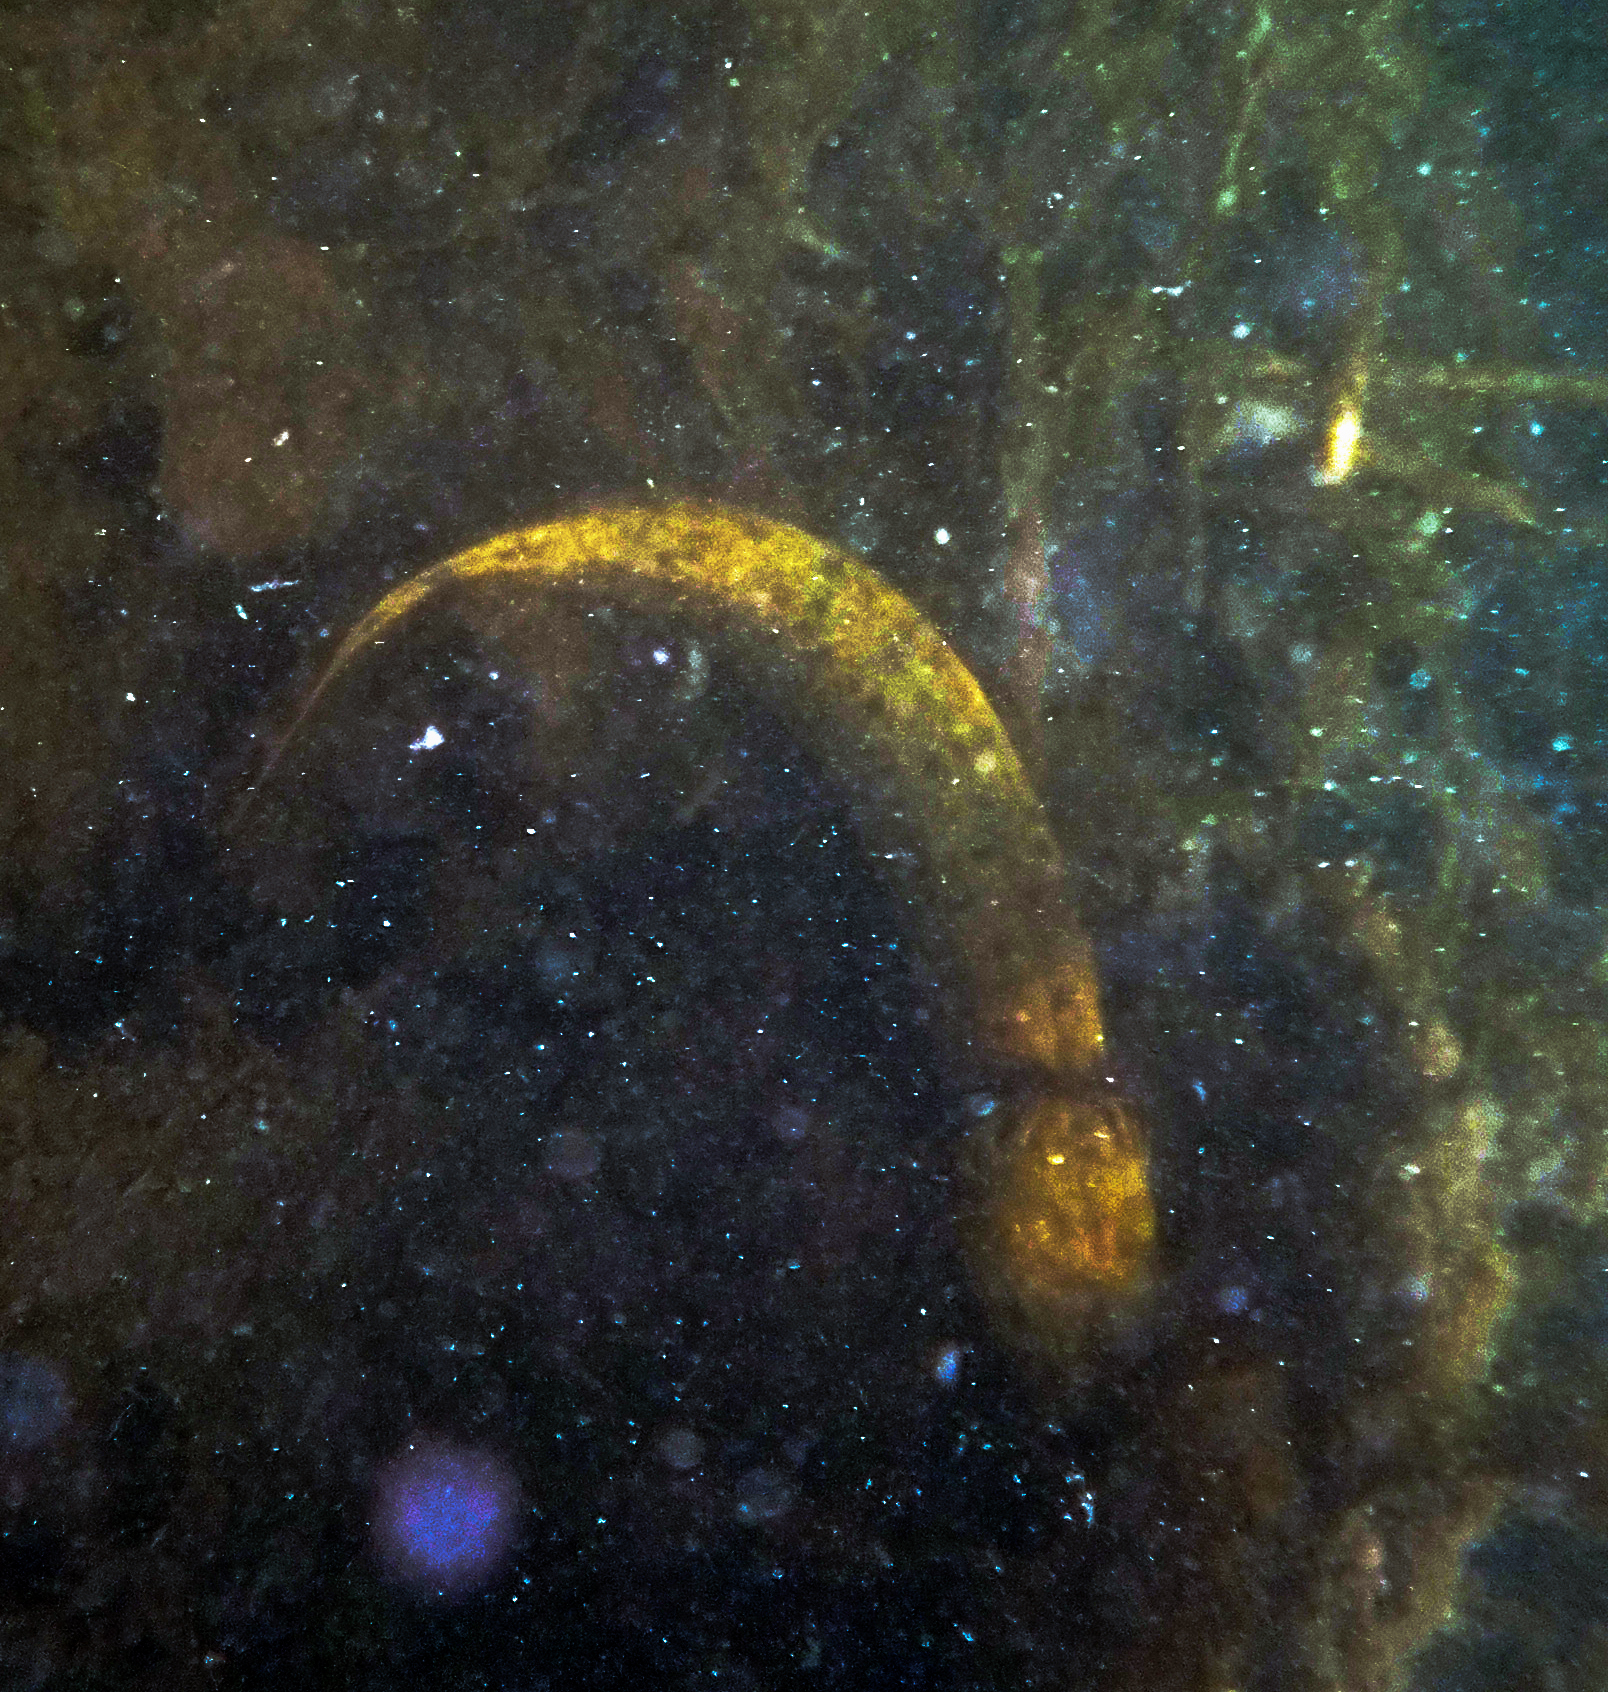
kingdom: Animalia
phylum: Chordata
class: Amphibia
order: Caudata
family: Proteidae
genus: Necturus
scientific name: Necturus maculosus
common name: Mudpuppy
